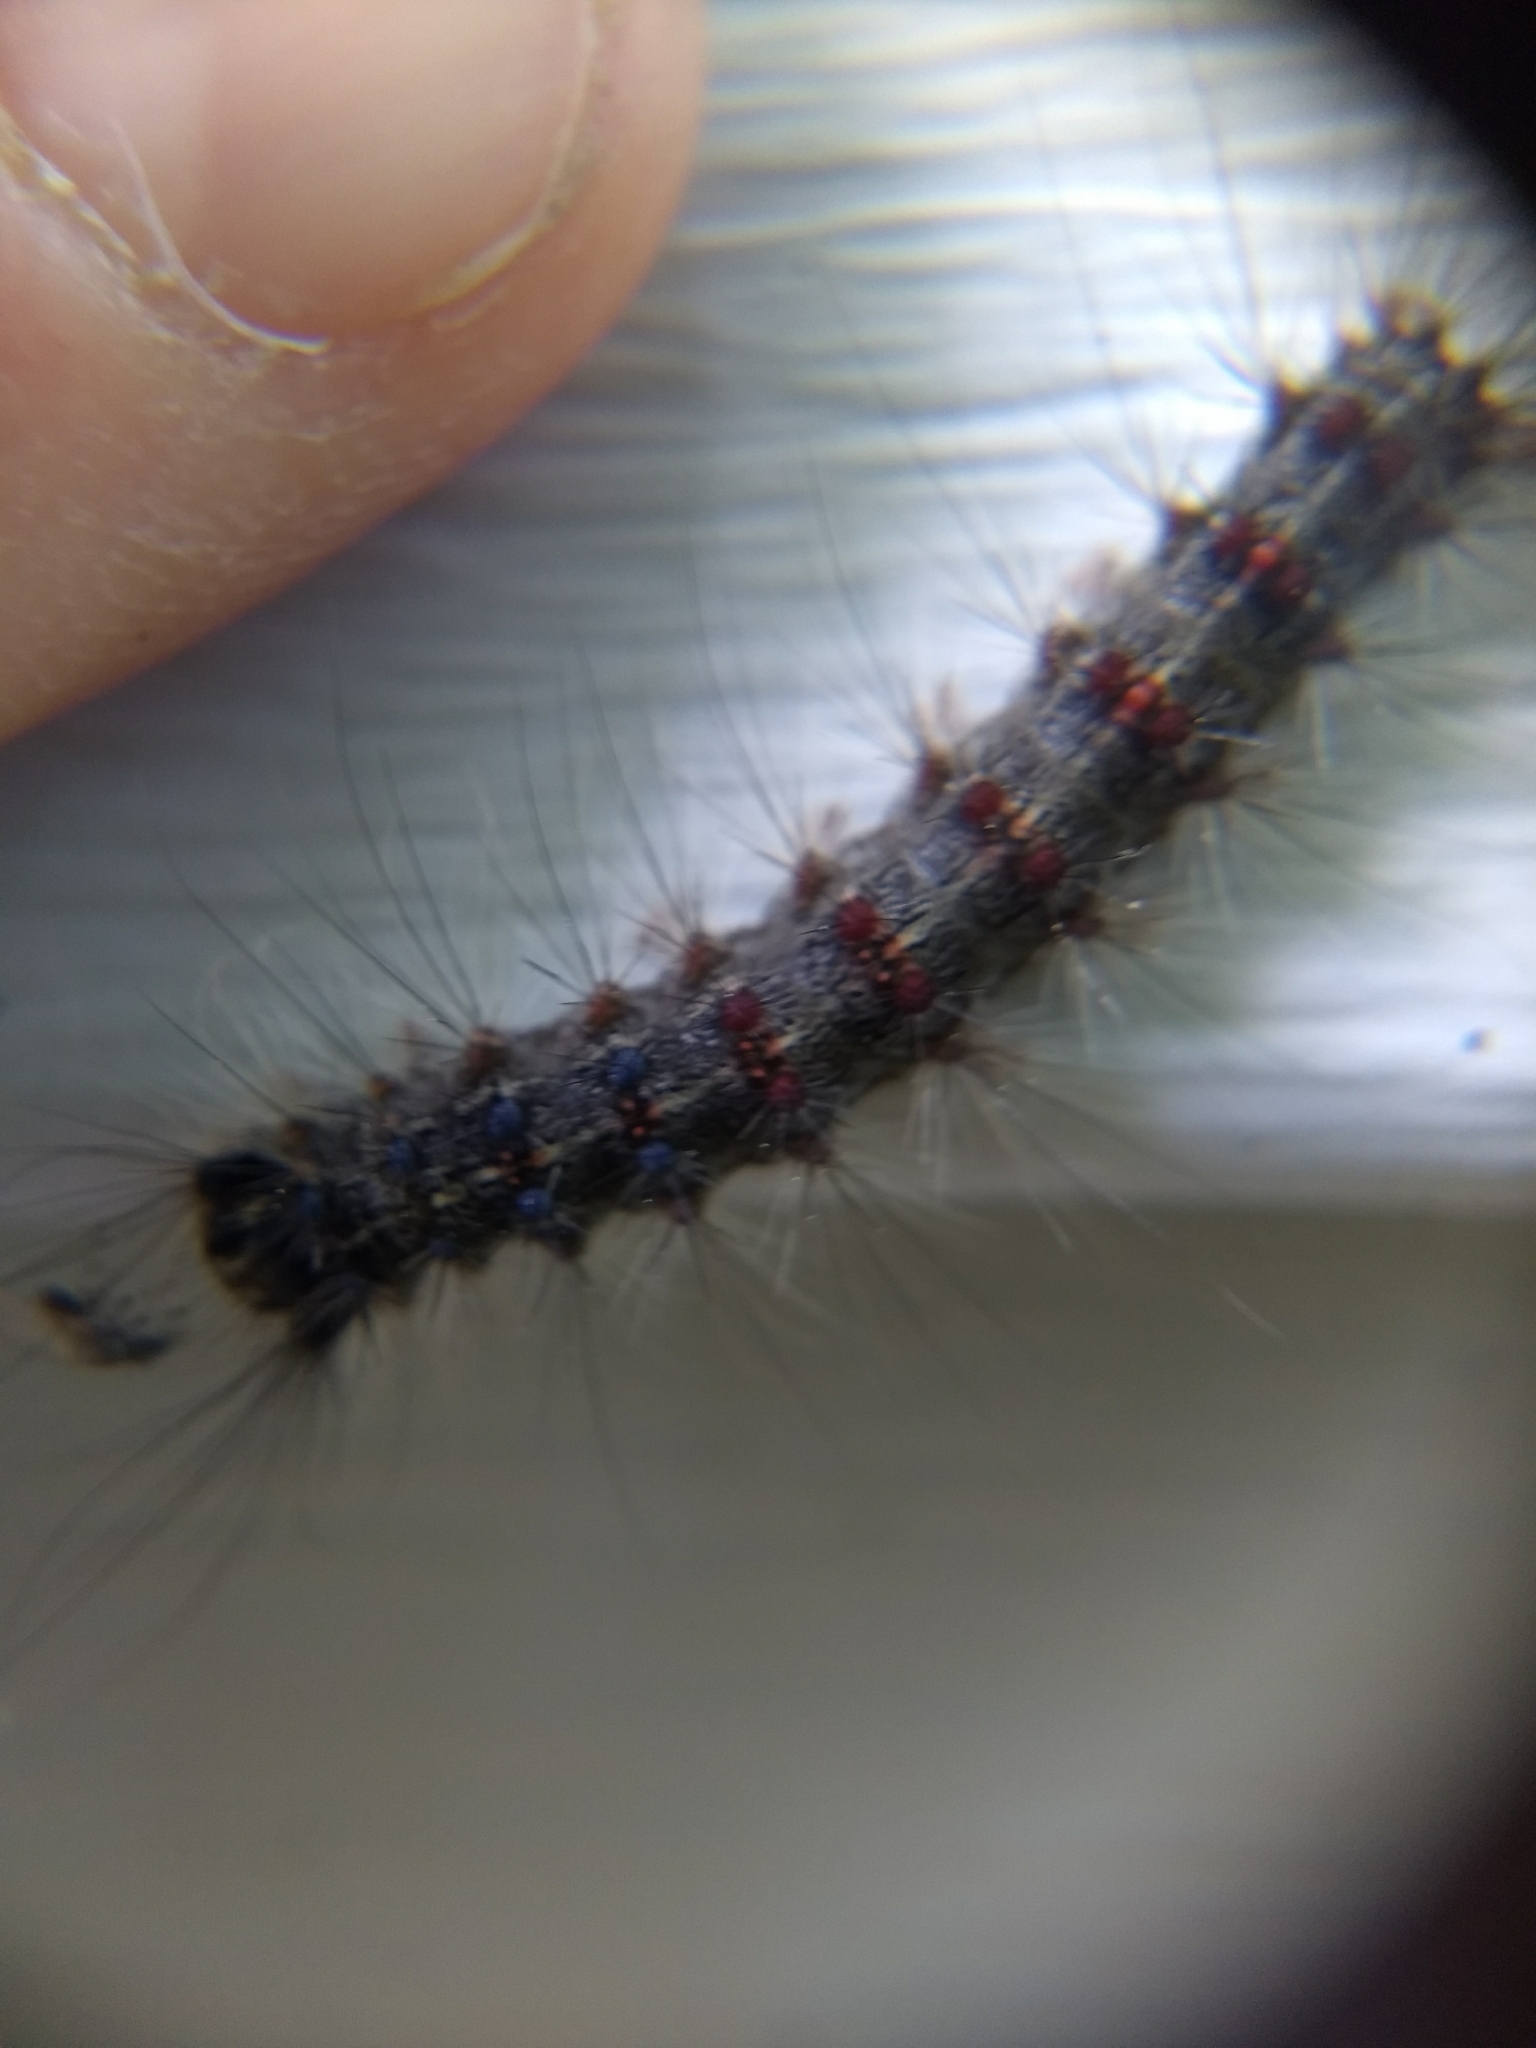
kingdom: Animalia
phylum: Arthropoda
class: Insecta
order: Lepidoptera
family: Erebidae
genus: Lymantria
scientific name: Lymantria dispar
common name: Gypsy moth
